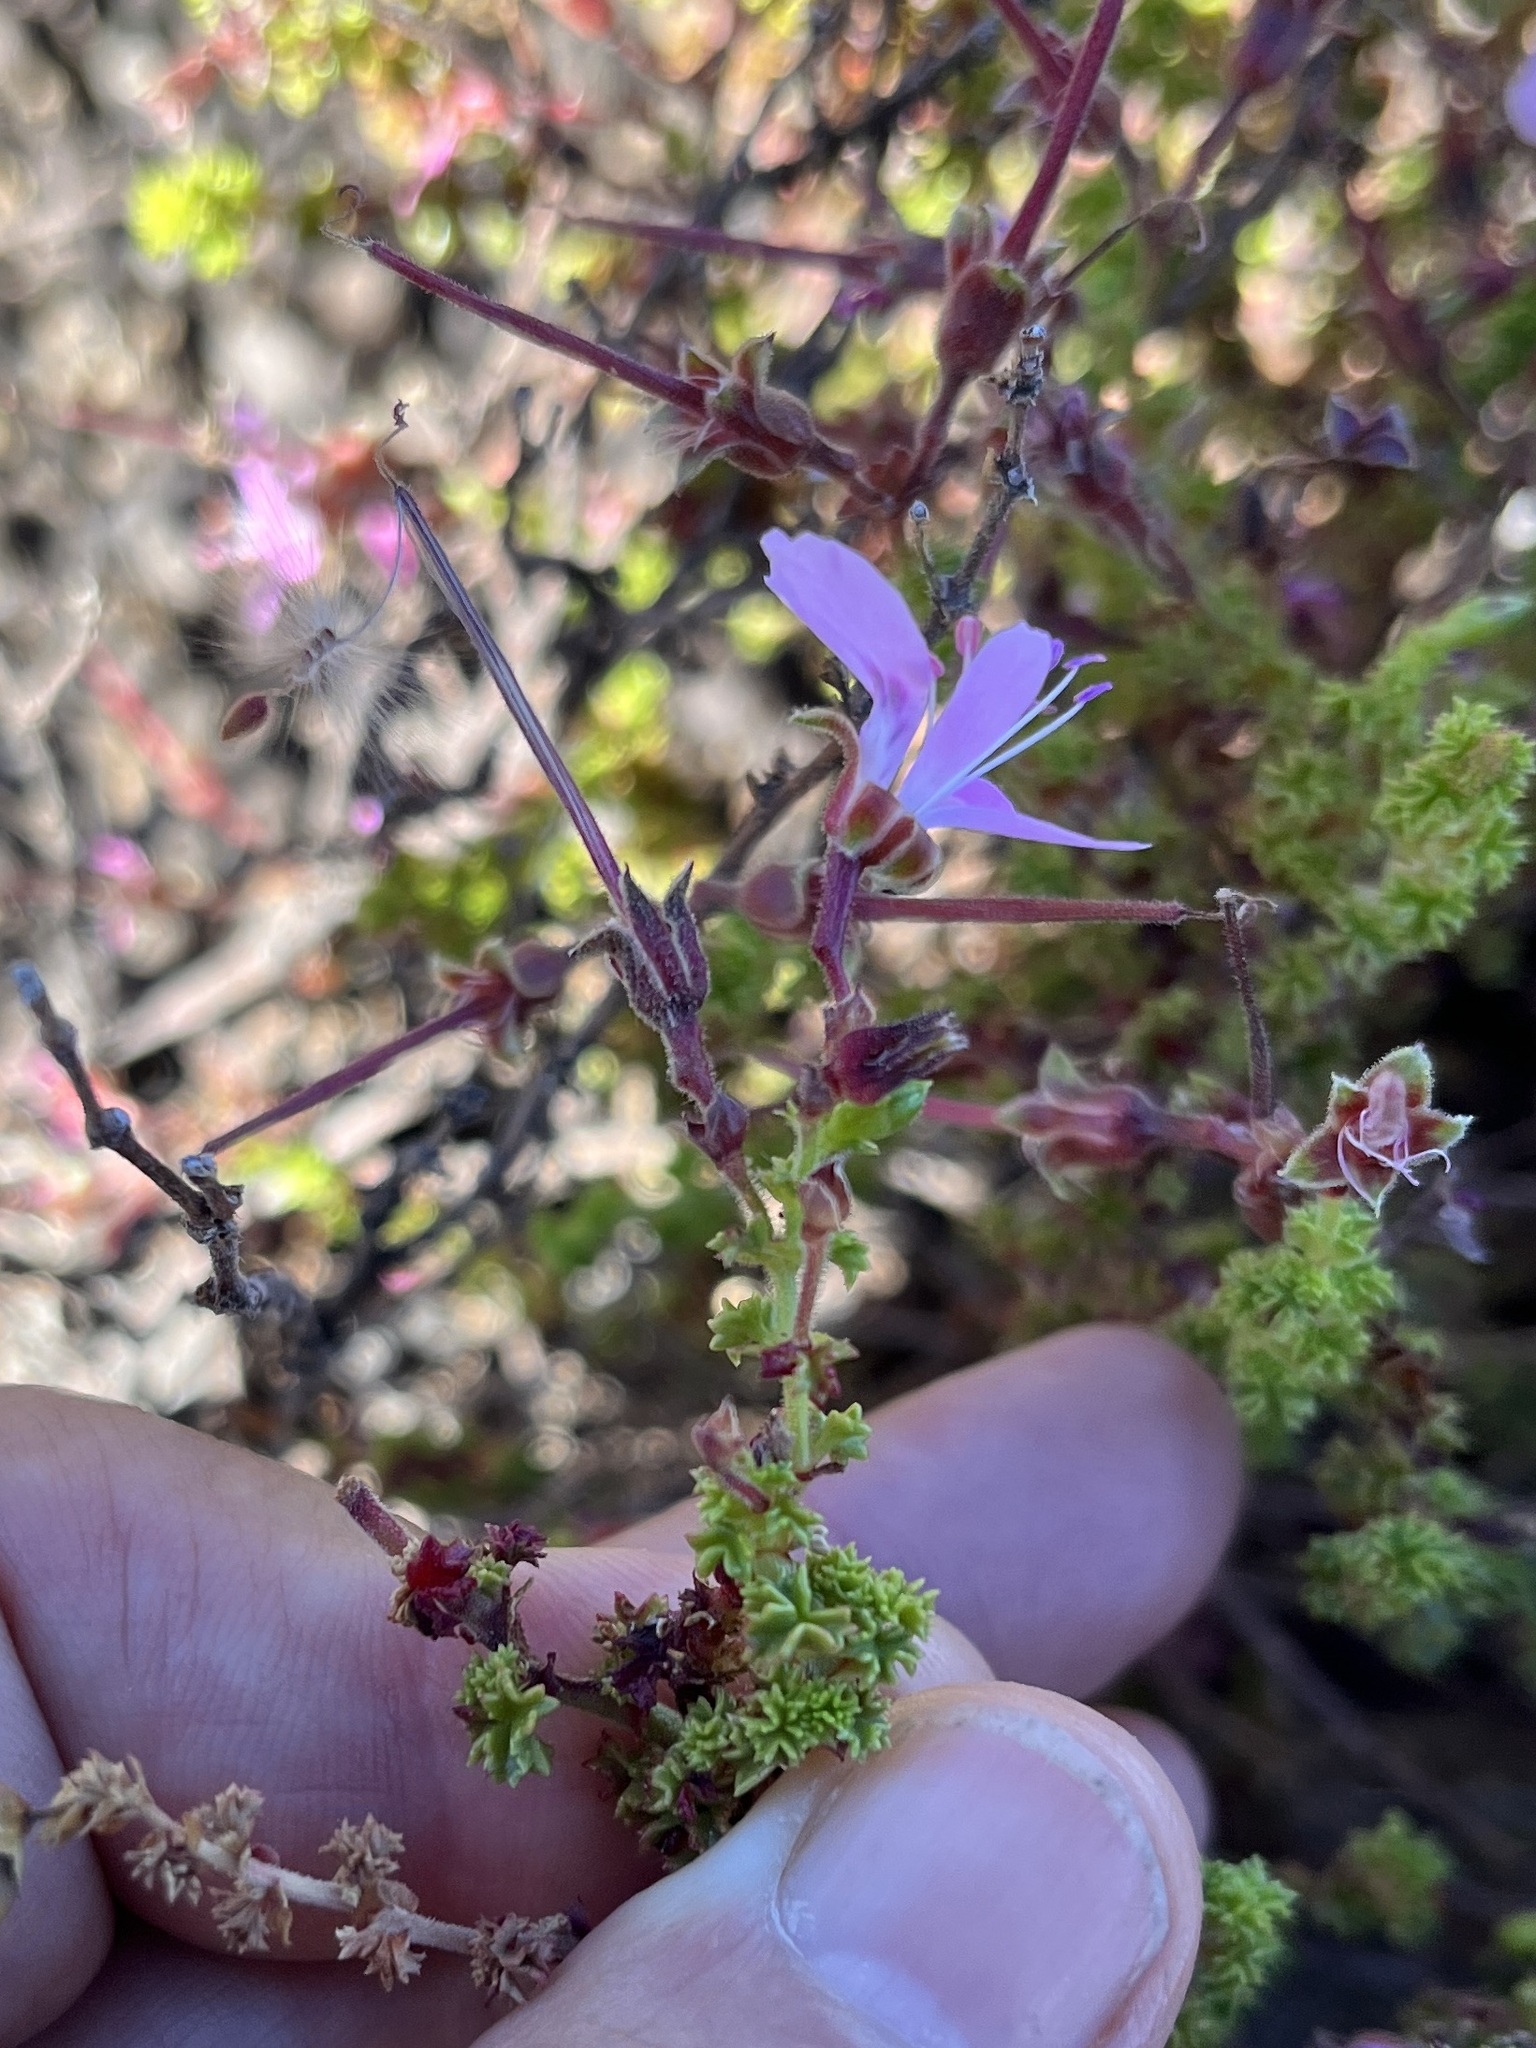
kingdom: Plantae
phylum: Tracheophyta
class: Magnoliopsida
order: Geraniales
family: Geraniaceae
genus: Pelargonium
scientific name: Pelargonium englerianum
